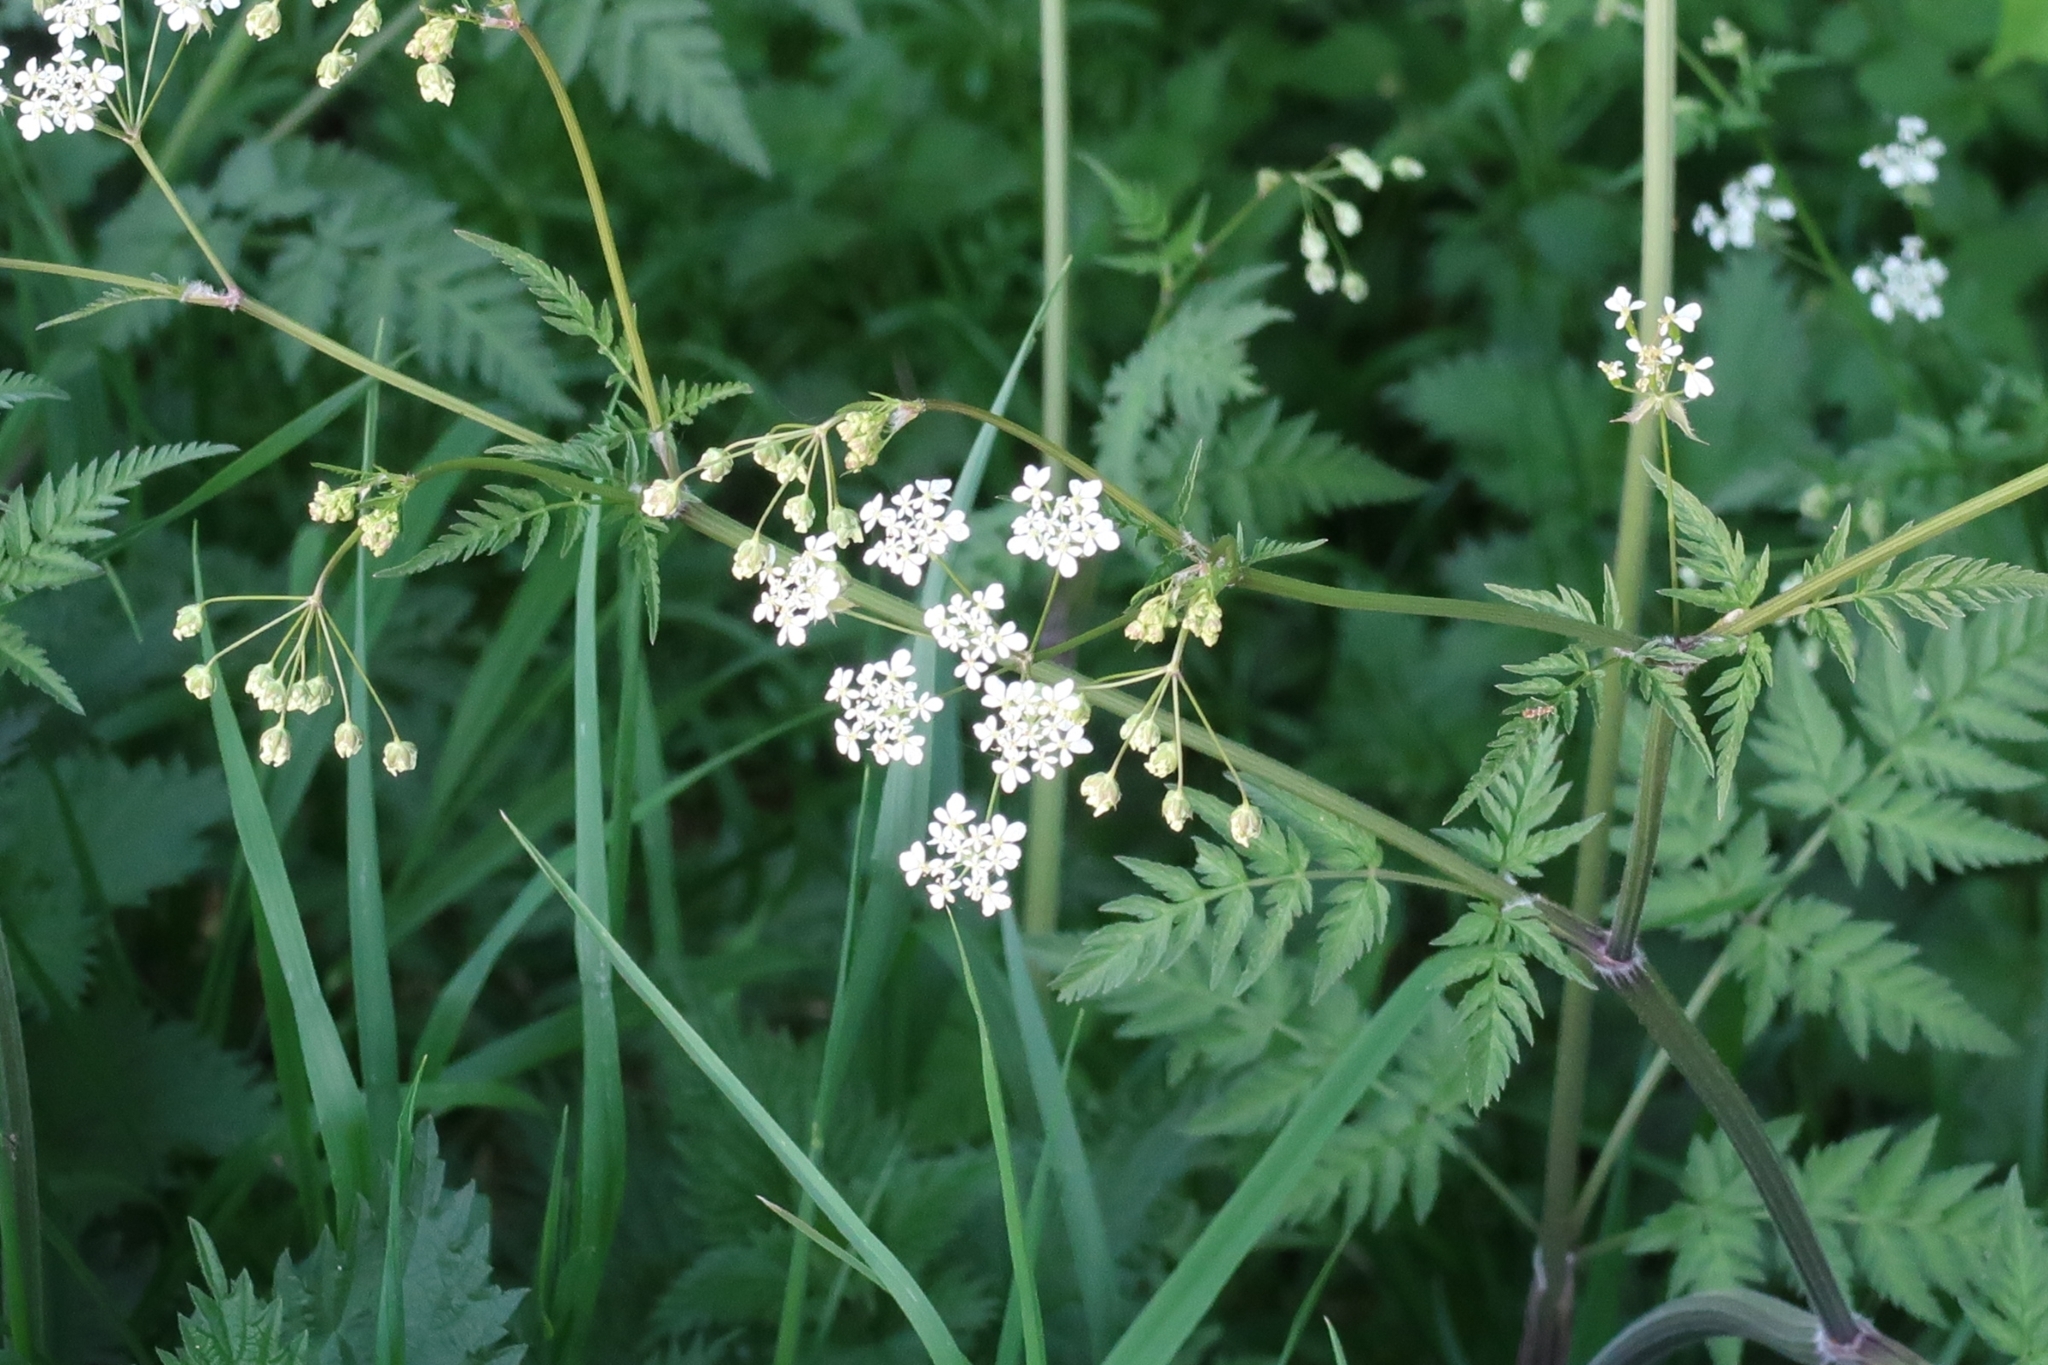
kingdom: Plantae
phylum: Tracheophyta
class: Magnoliopsida
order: Apiales
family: Apiaceae
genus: Anthriscus
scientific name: Anthriscus sylvestris
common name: Cow parsley
